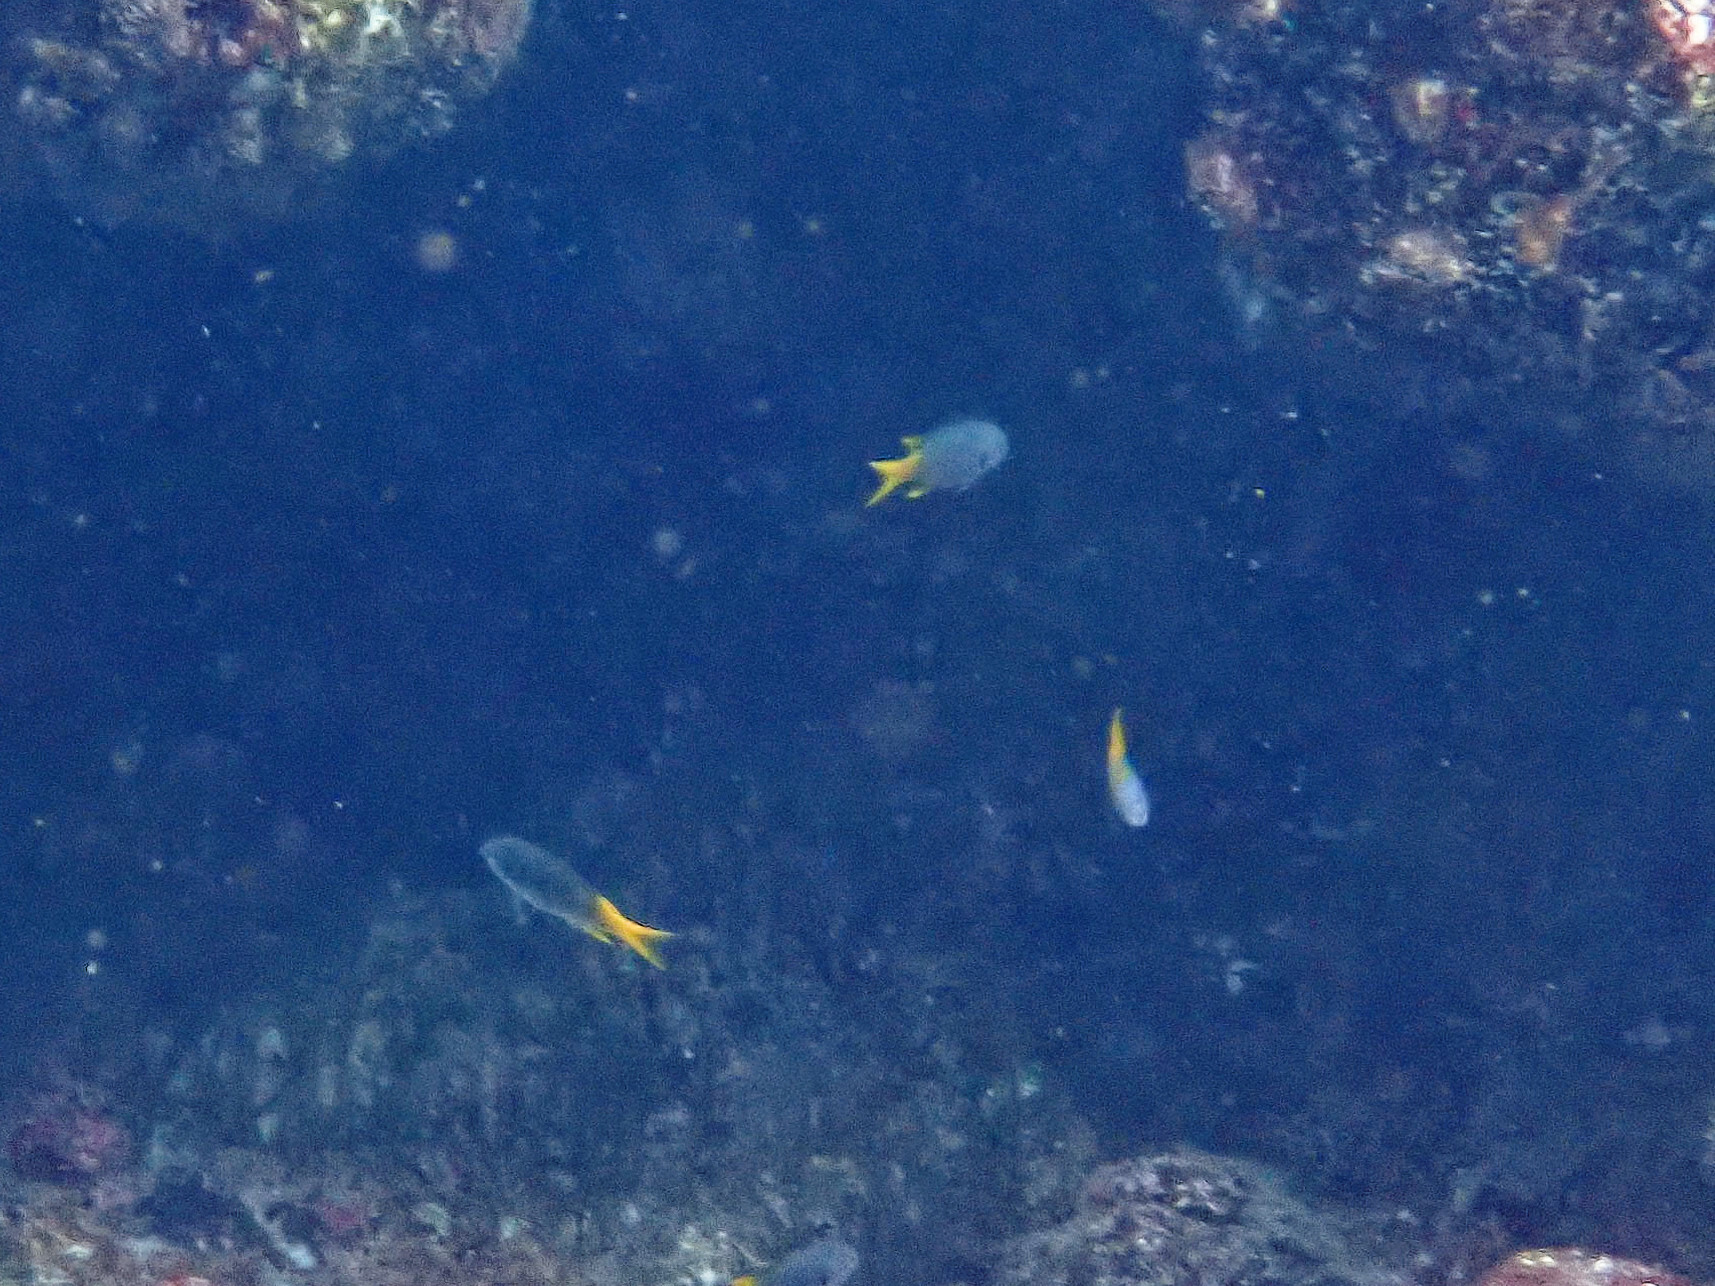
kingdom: Animalia
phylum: Chordata
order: Perciformes
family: Pomacentridae
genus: Neopomacentrus
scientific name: Neopomacentrus sororius
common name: Twin demoiselle
